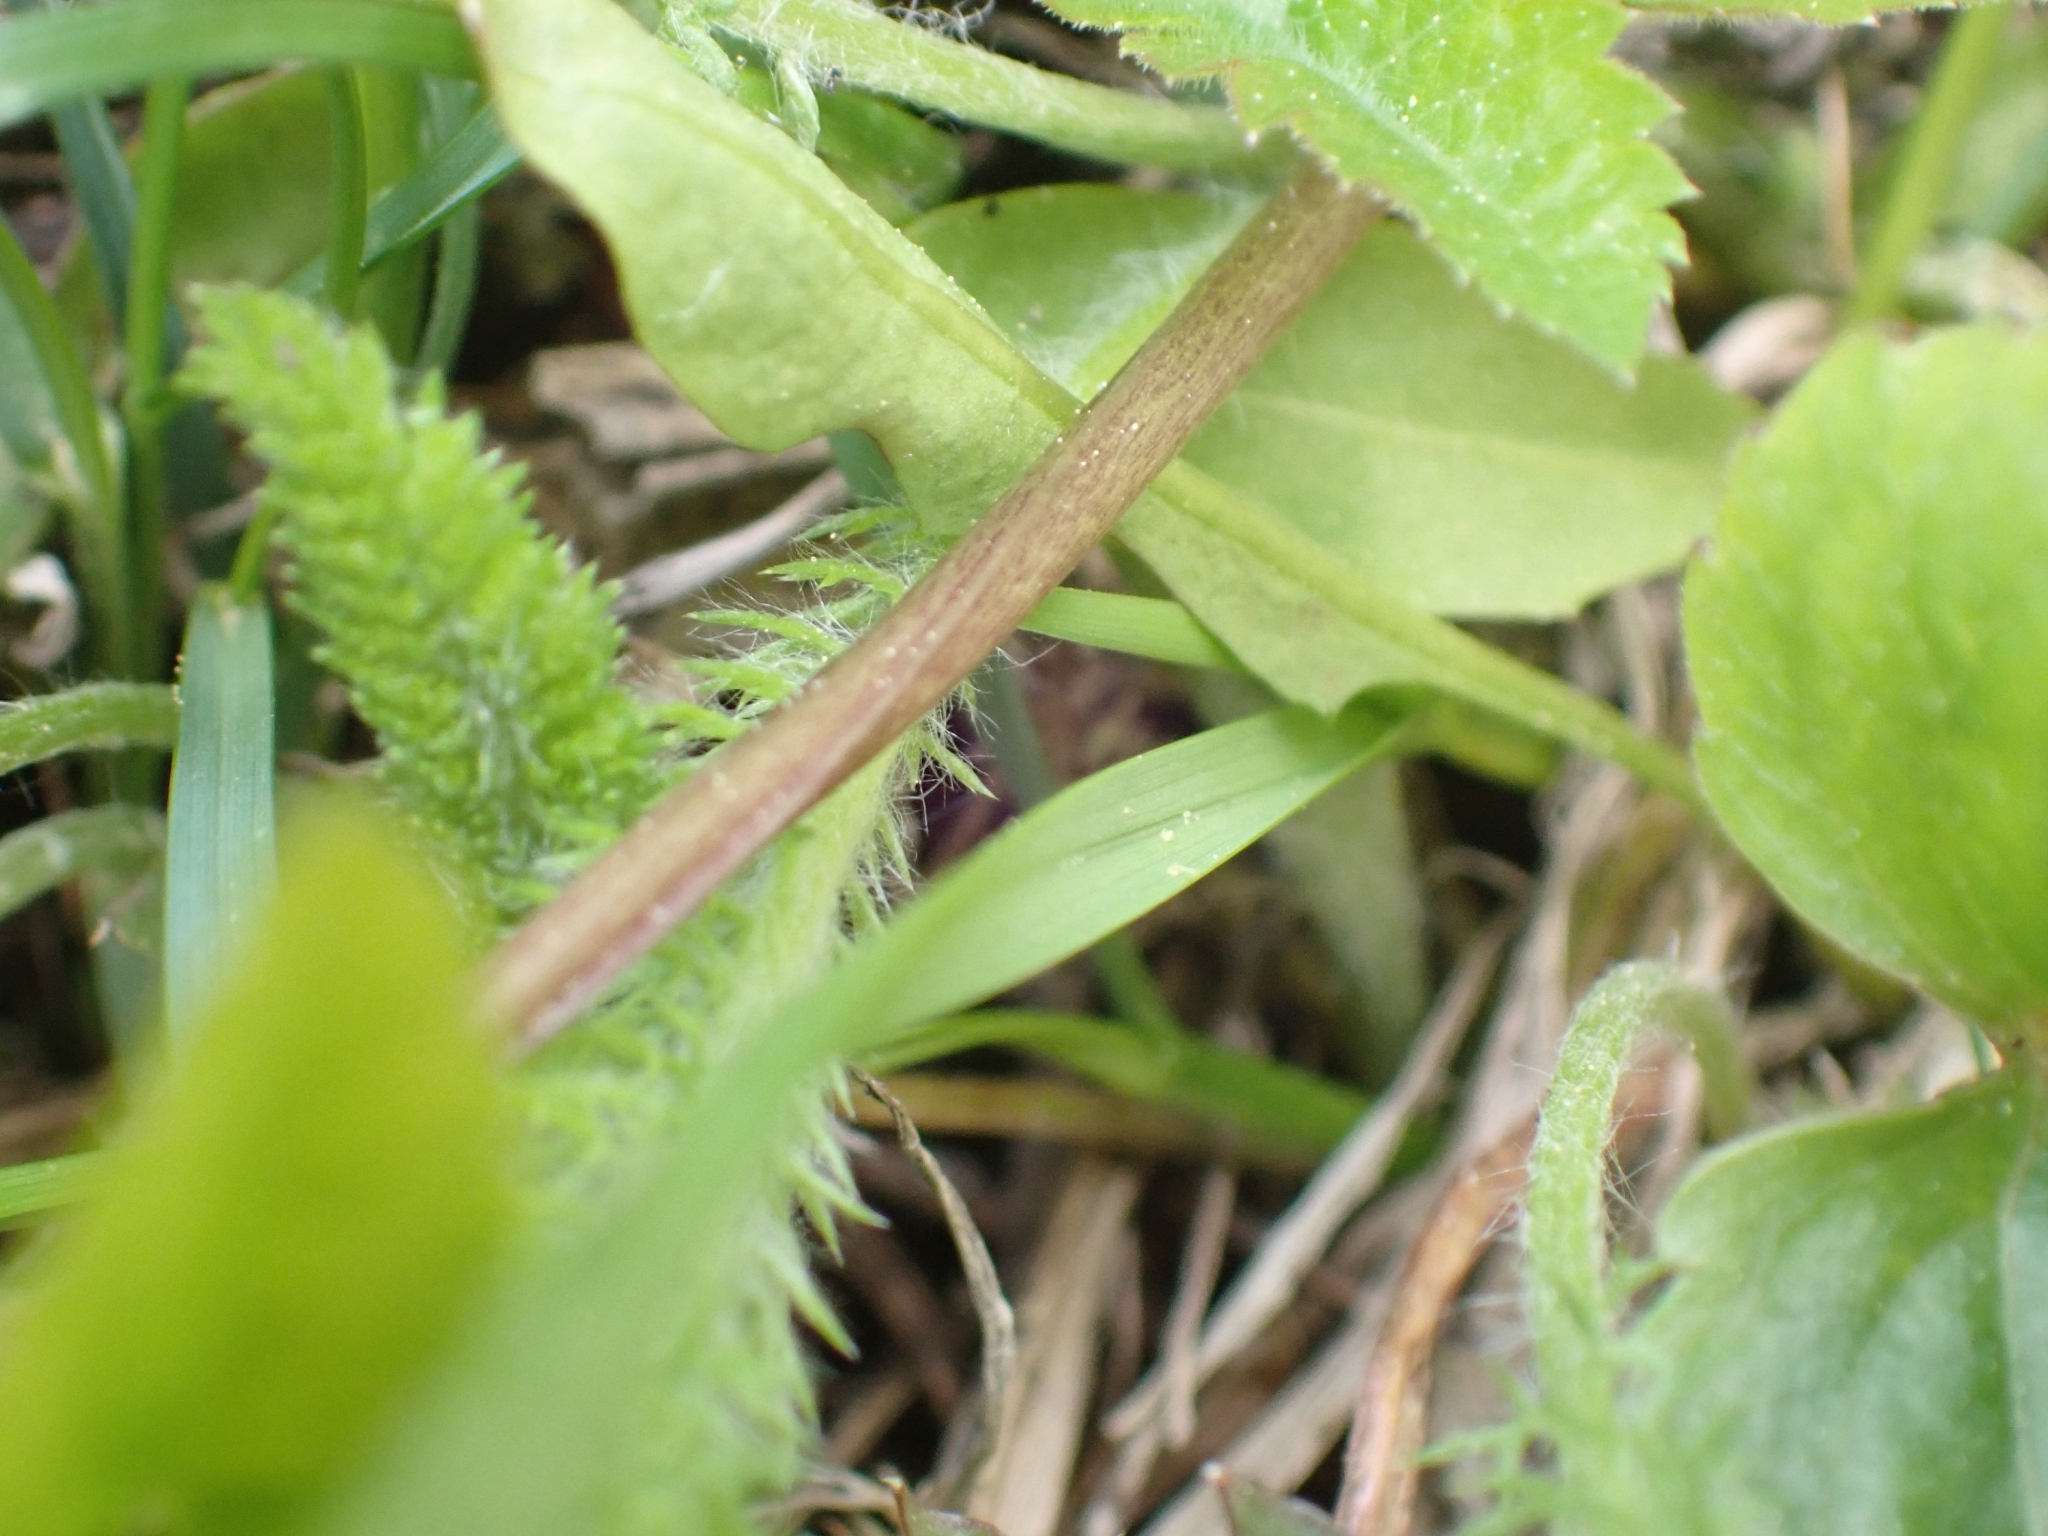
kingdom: Plantae
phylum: Tracheophyta
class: Magnoliopsida
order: Malpighiales
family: Violaceae
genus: Viola
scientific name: Viola glabella
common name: Stream violet
